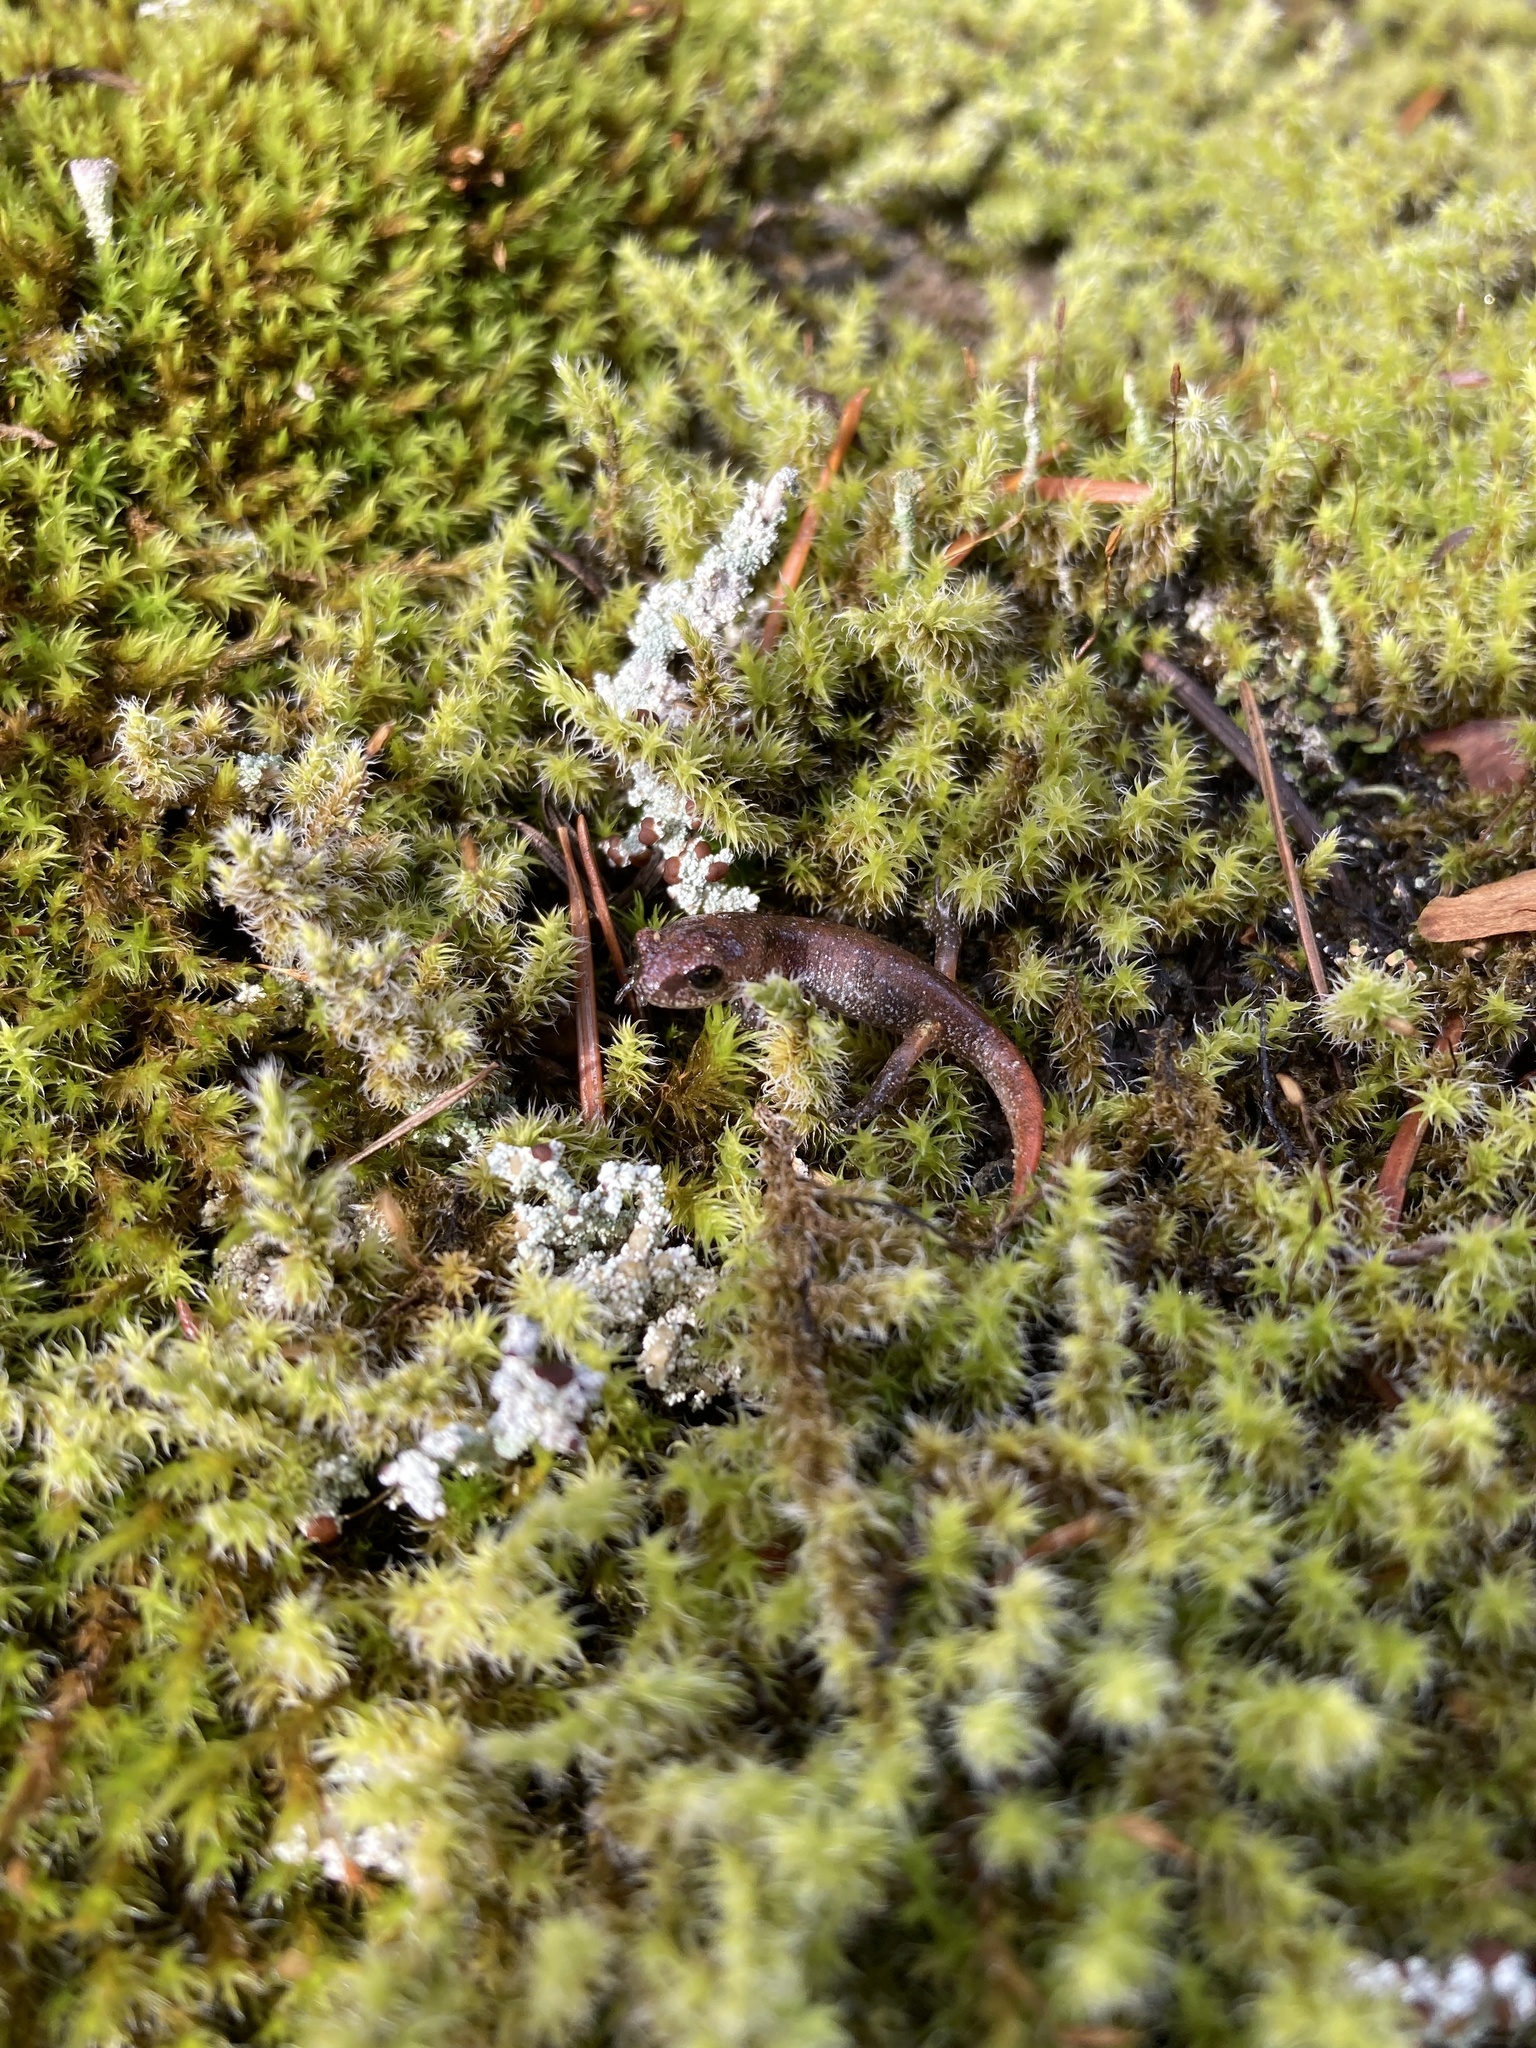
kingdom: Animalia
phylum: Chordata
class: Amphibia
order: Caudata
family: Plethodontidae
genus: Ensatina
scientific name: Ensatina eschscholtzii
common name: Ensatina
